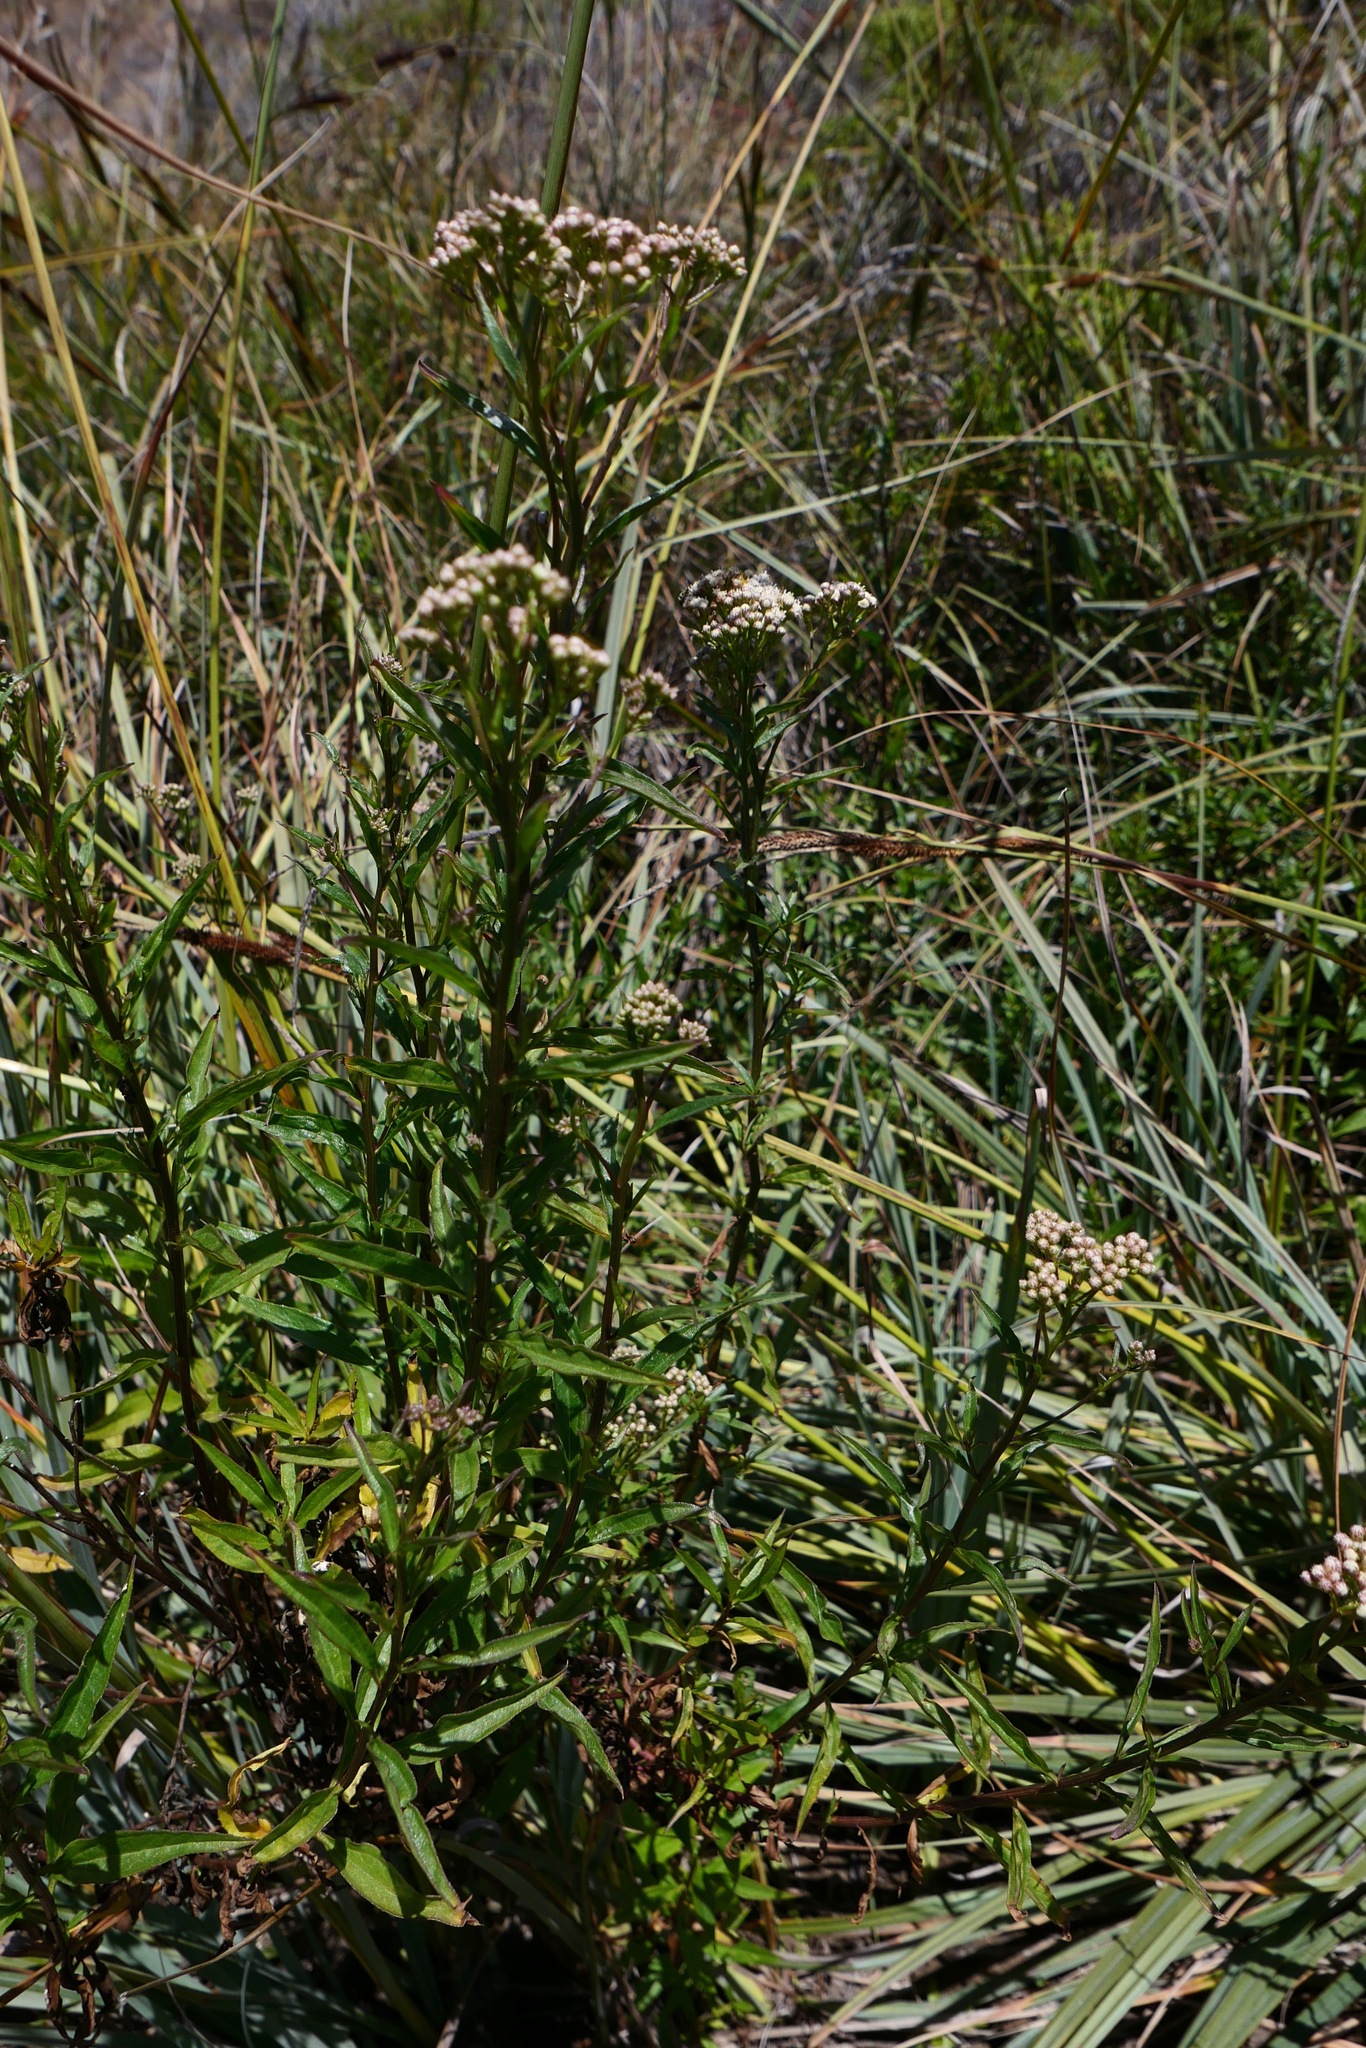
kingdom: Plantae
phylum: Tracheophyta
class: Magnoliopsida
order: Asterales
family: Asteraceae
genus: Baccharis
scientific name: Baccharis salicifolia
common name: Sticky baccharis
